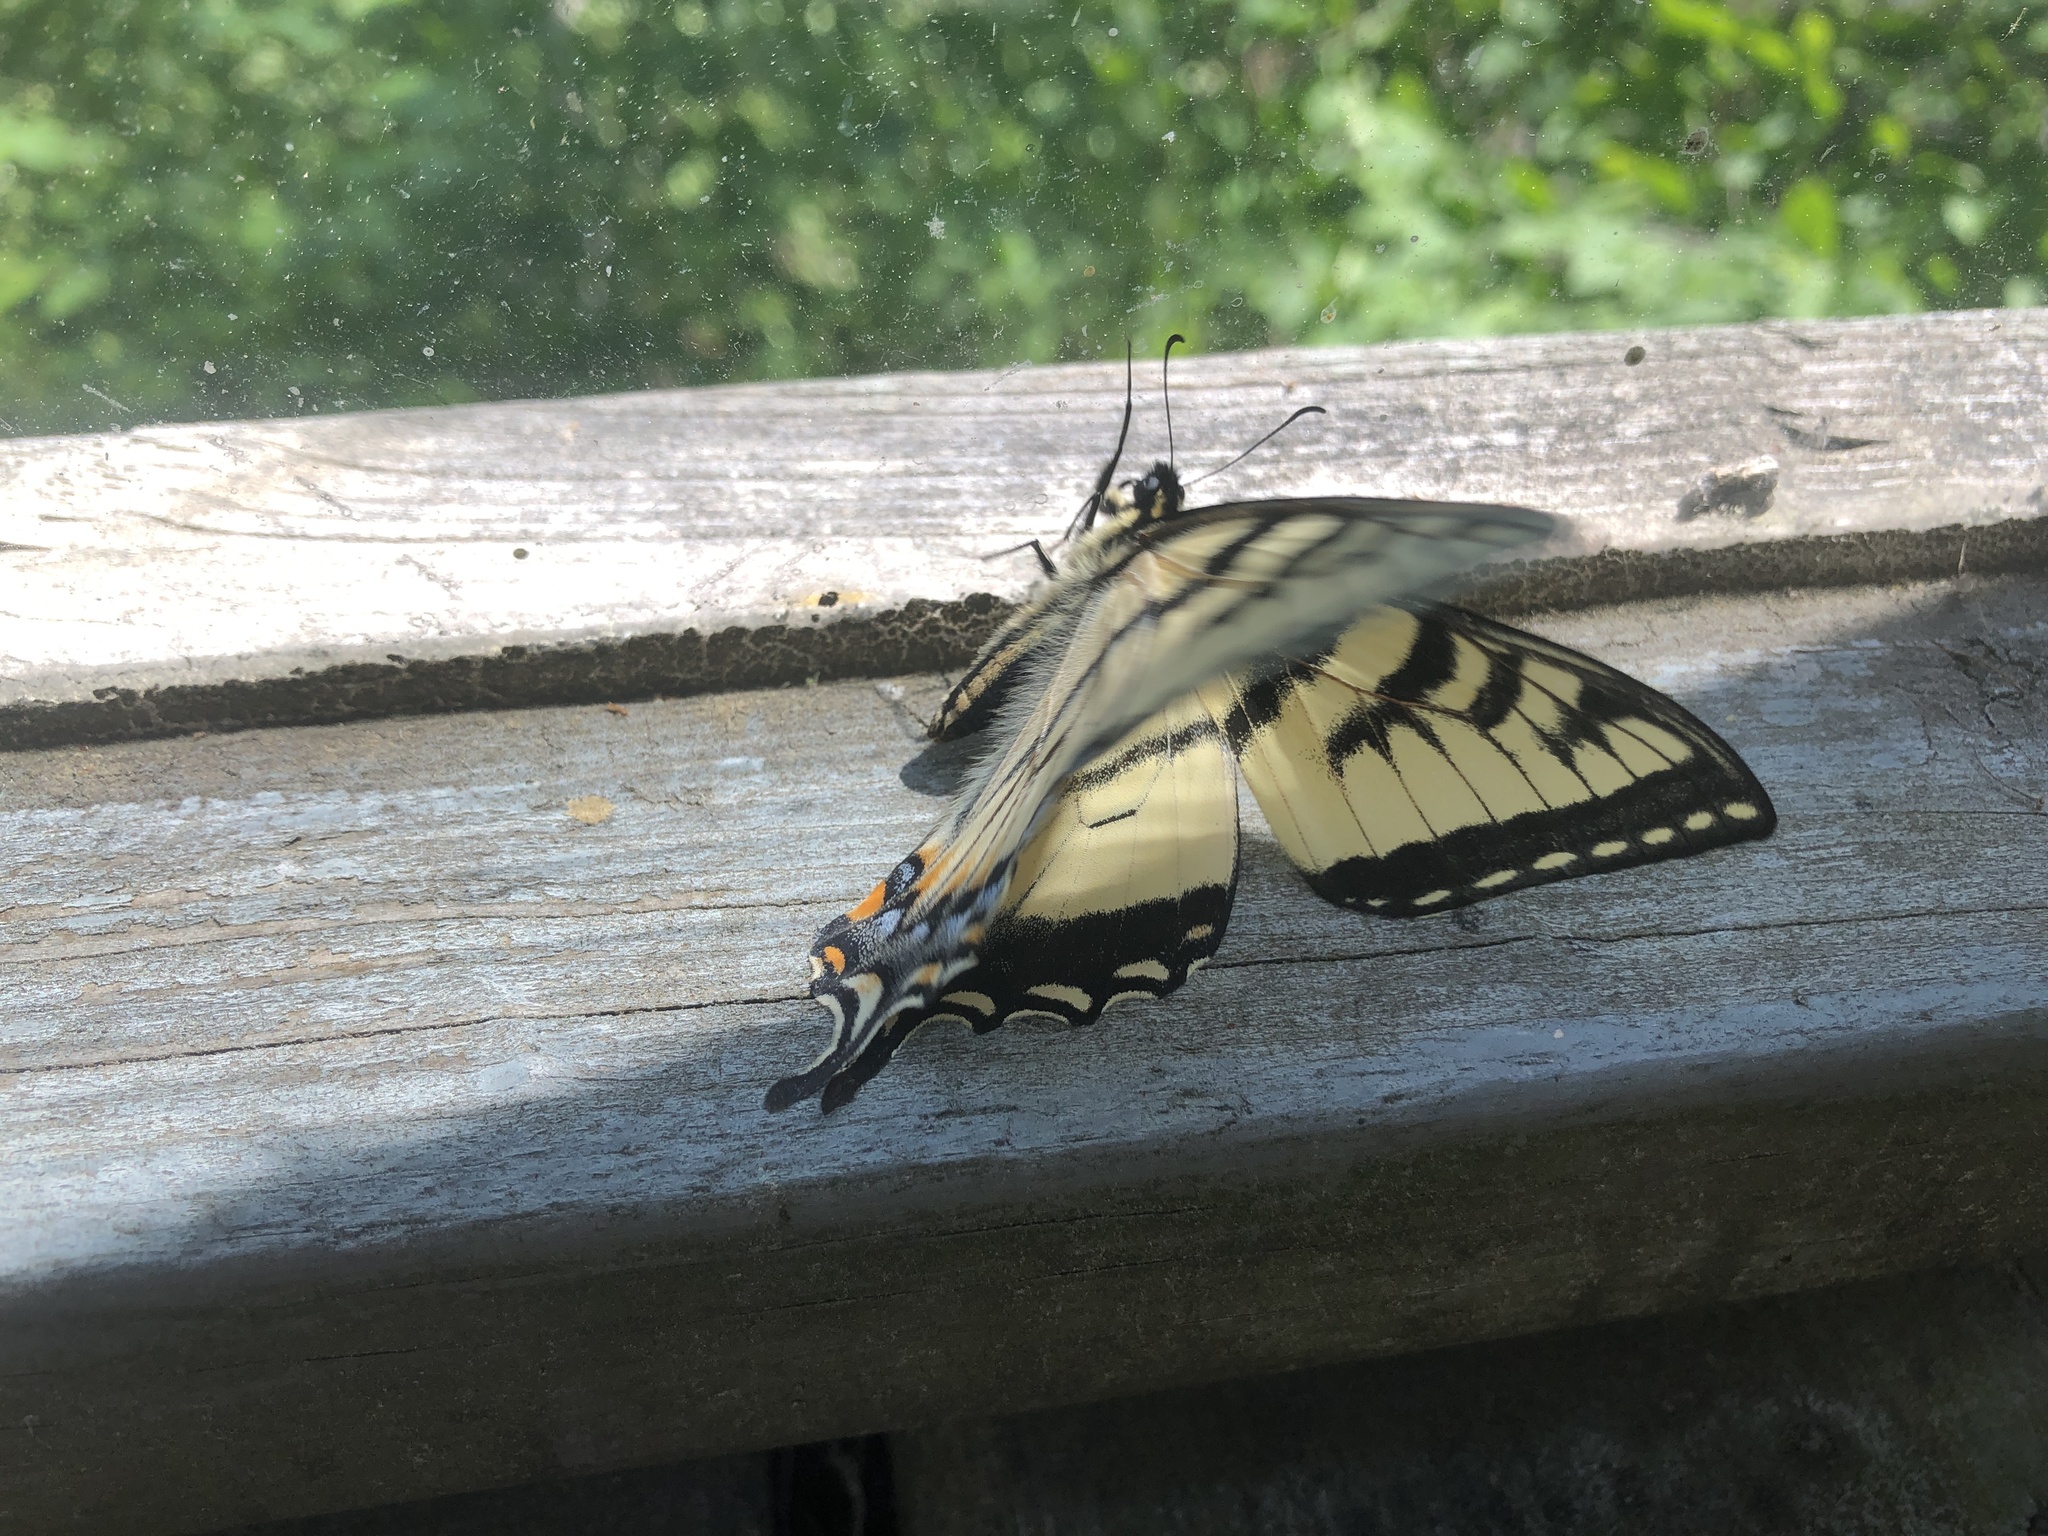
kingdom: Animalia
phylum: Arthropoda
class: Insecta
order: Lepidoptera
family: Papilionidae
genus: Papilio
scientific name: Papilio canadensis
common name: Canadian tiger swallowtail
